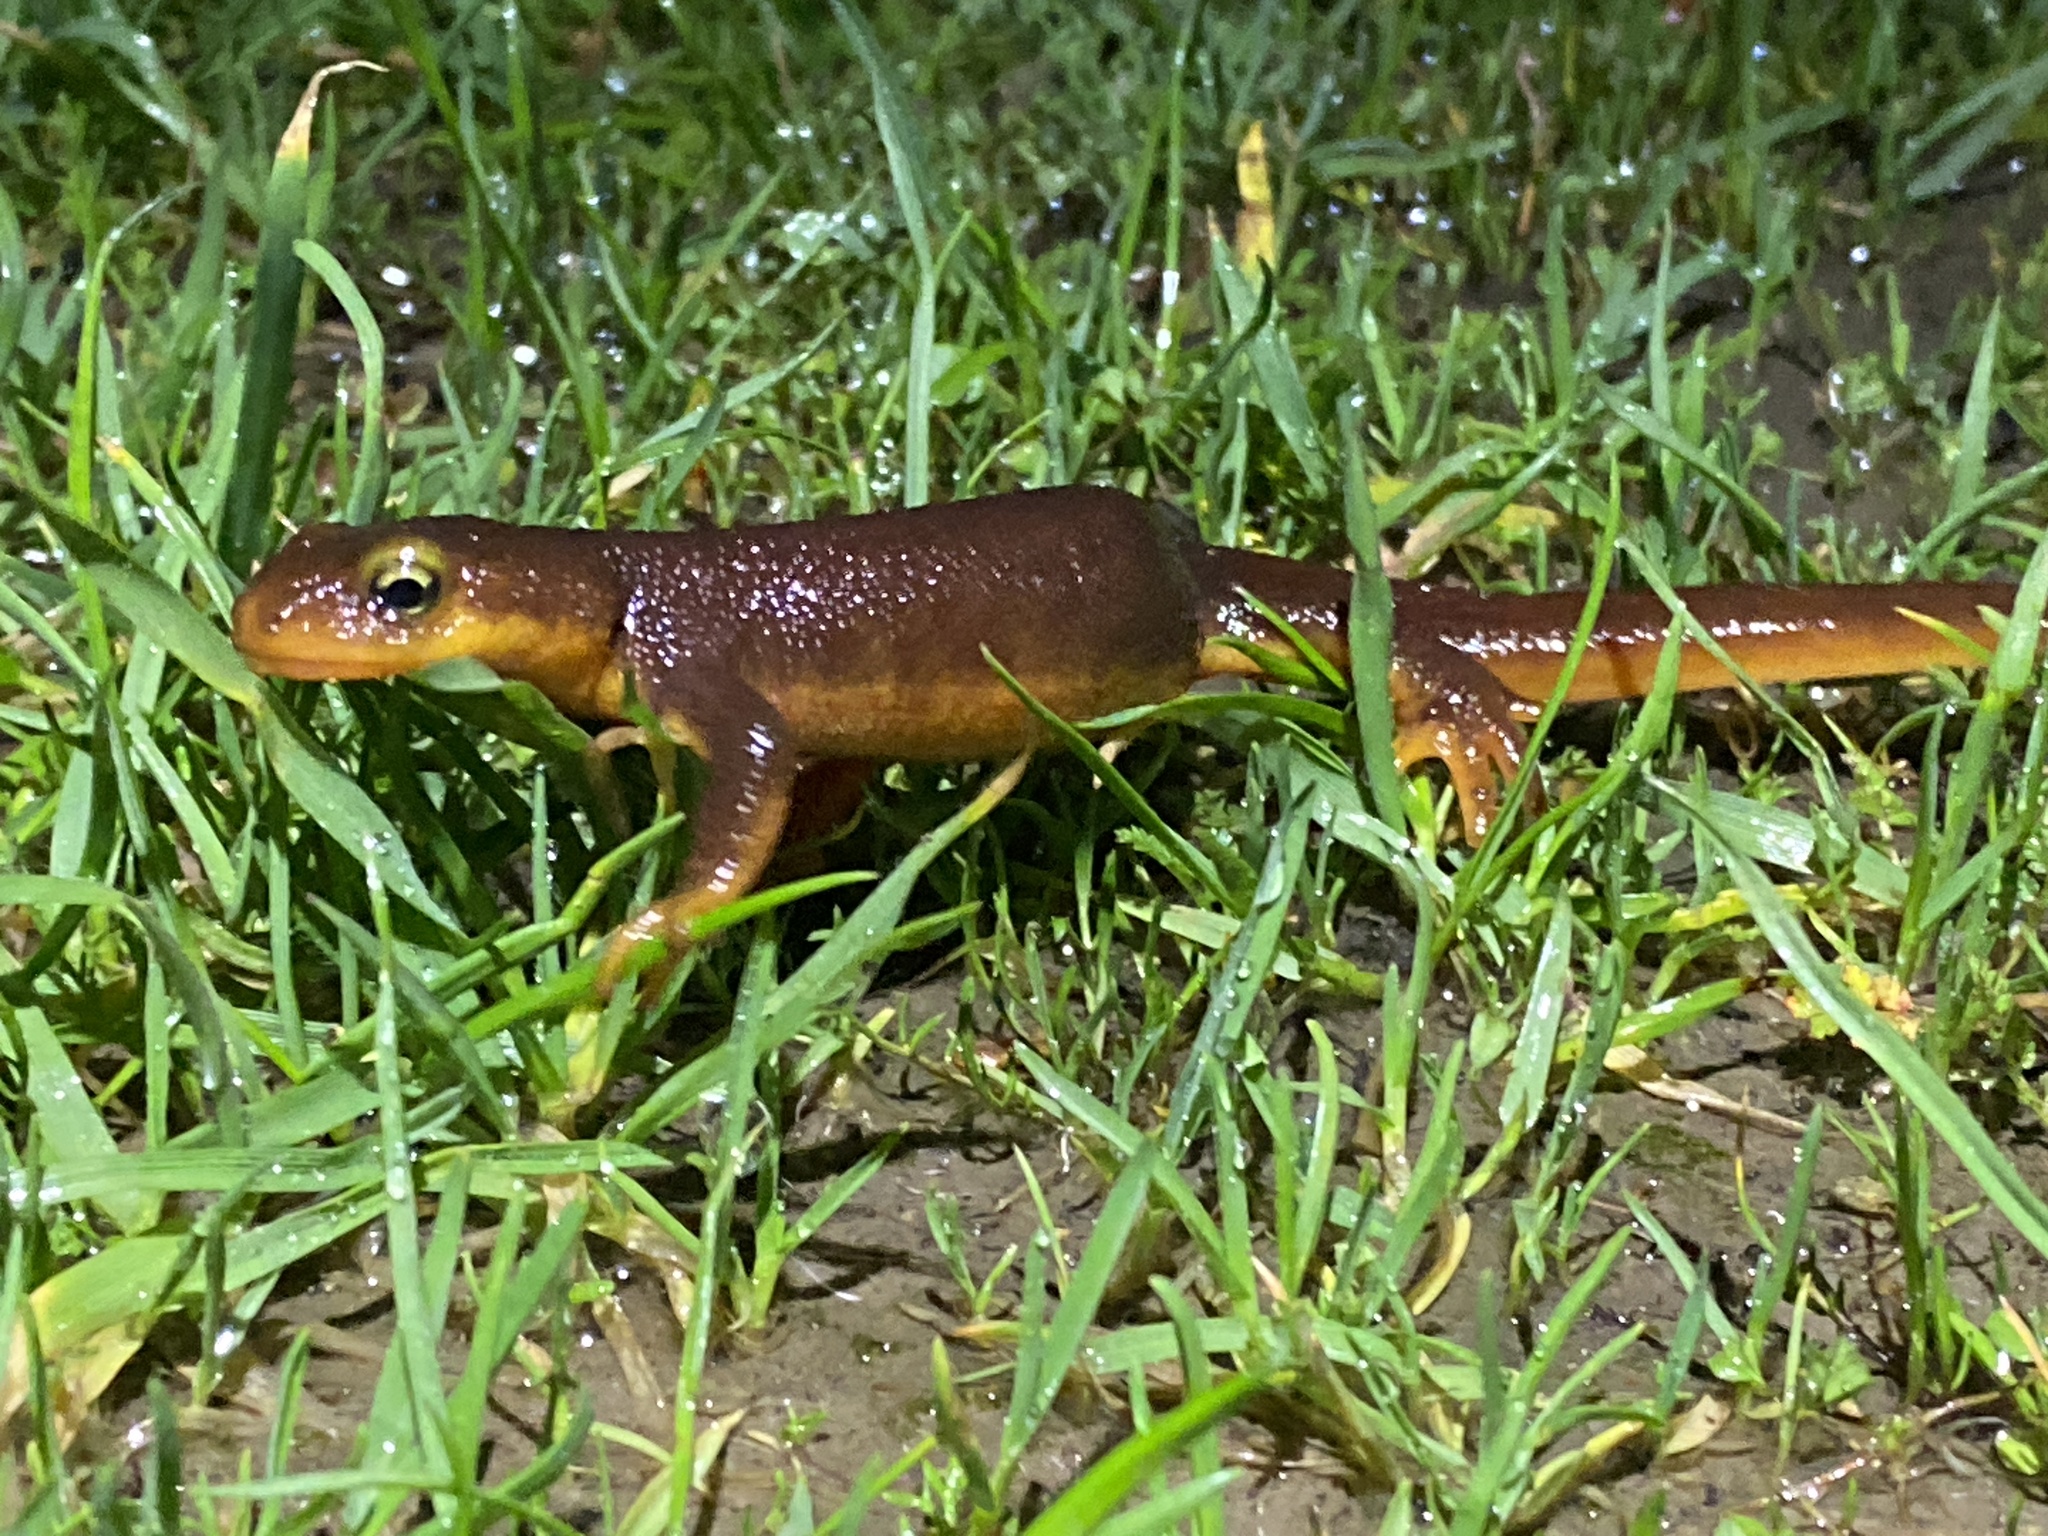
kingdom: Animalia
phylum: Chordata
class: Amphibia
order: Caudata
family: Salamandridae
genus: Taricha
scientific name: Taricha torosa
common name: California newt
